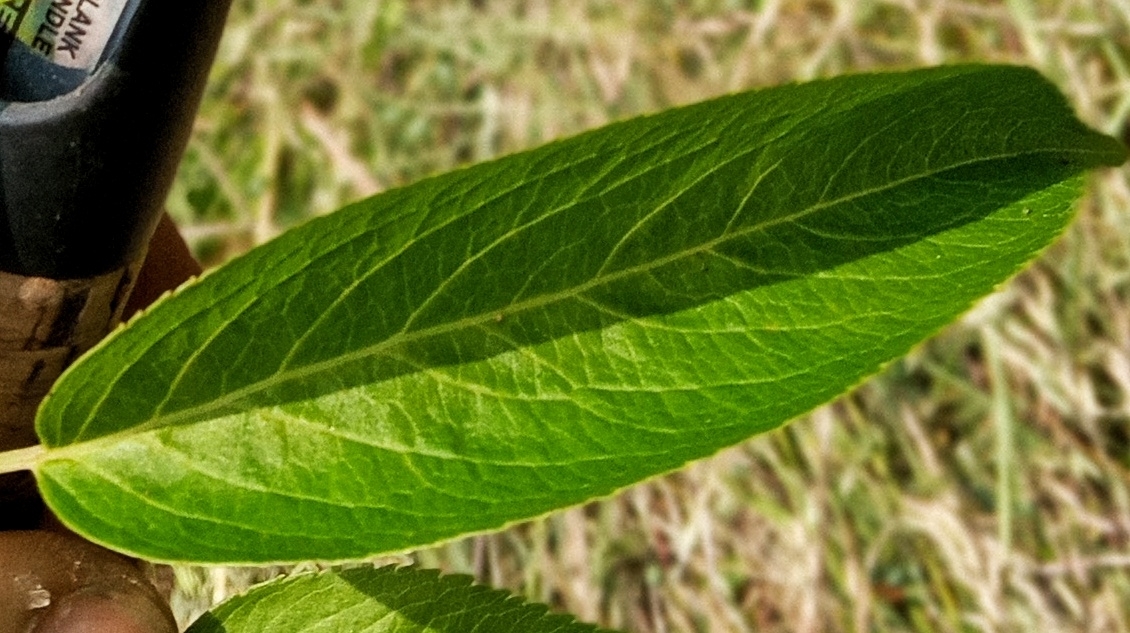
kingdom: Plantae
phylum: Tracheophyta
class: Magnoliopsida
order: Dipsacales
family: Viburnaceae
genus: Sambucus
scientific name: Sambucus canadensis
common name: American elder
